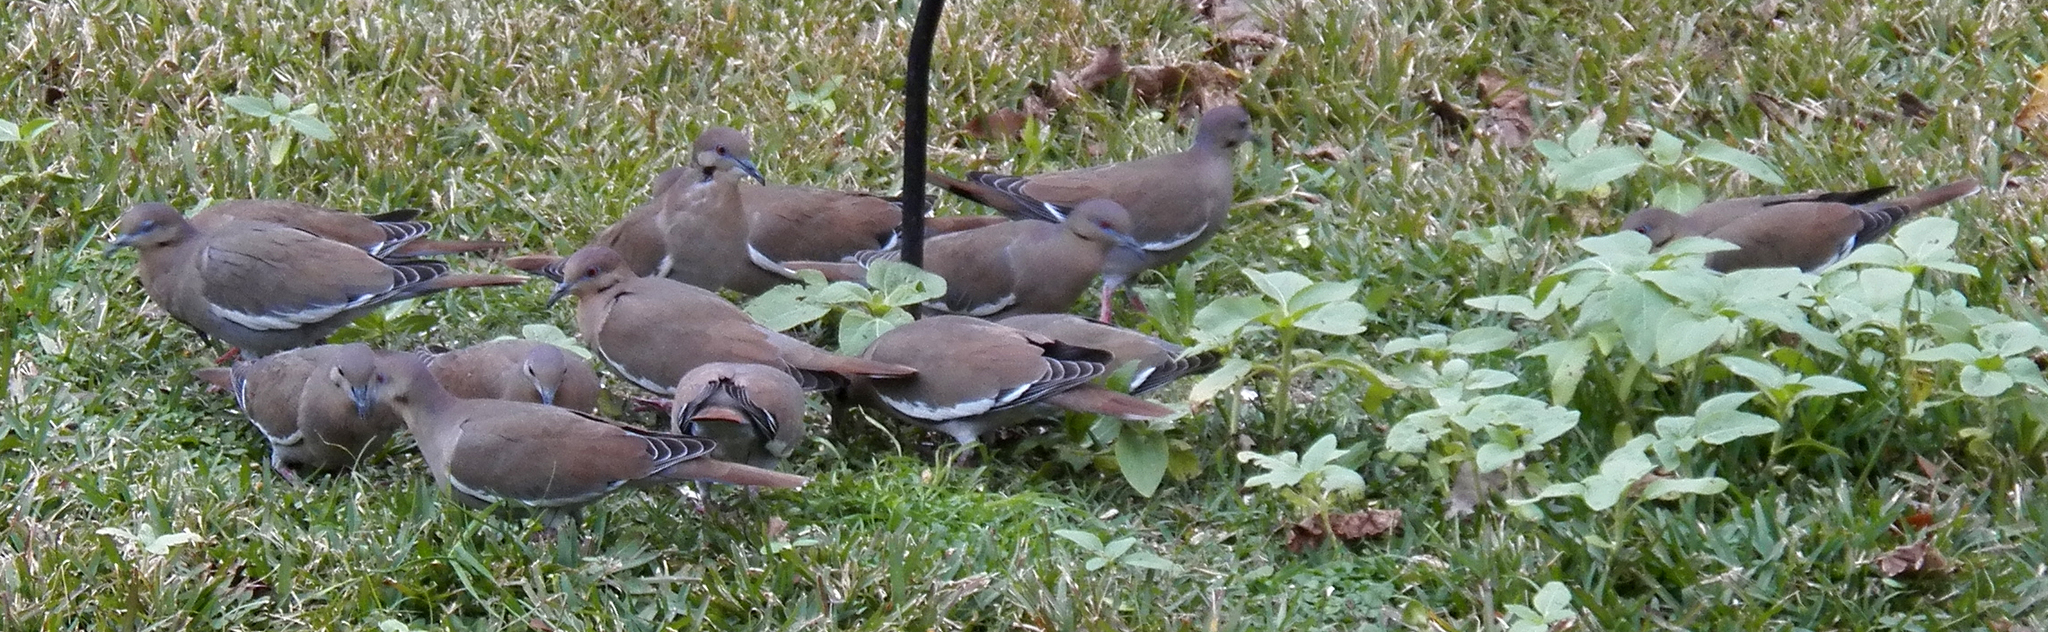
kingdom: Animalia
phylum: Chordata
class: Aves
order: Columbiformes
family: Columbidae
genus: Zenaida
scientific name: Zenaida asiatica
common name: White-winged dove
